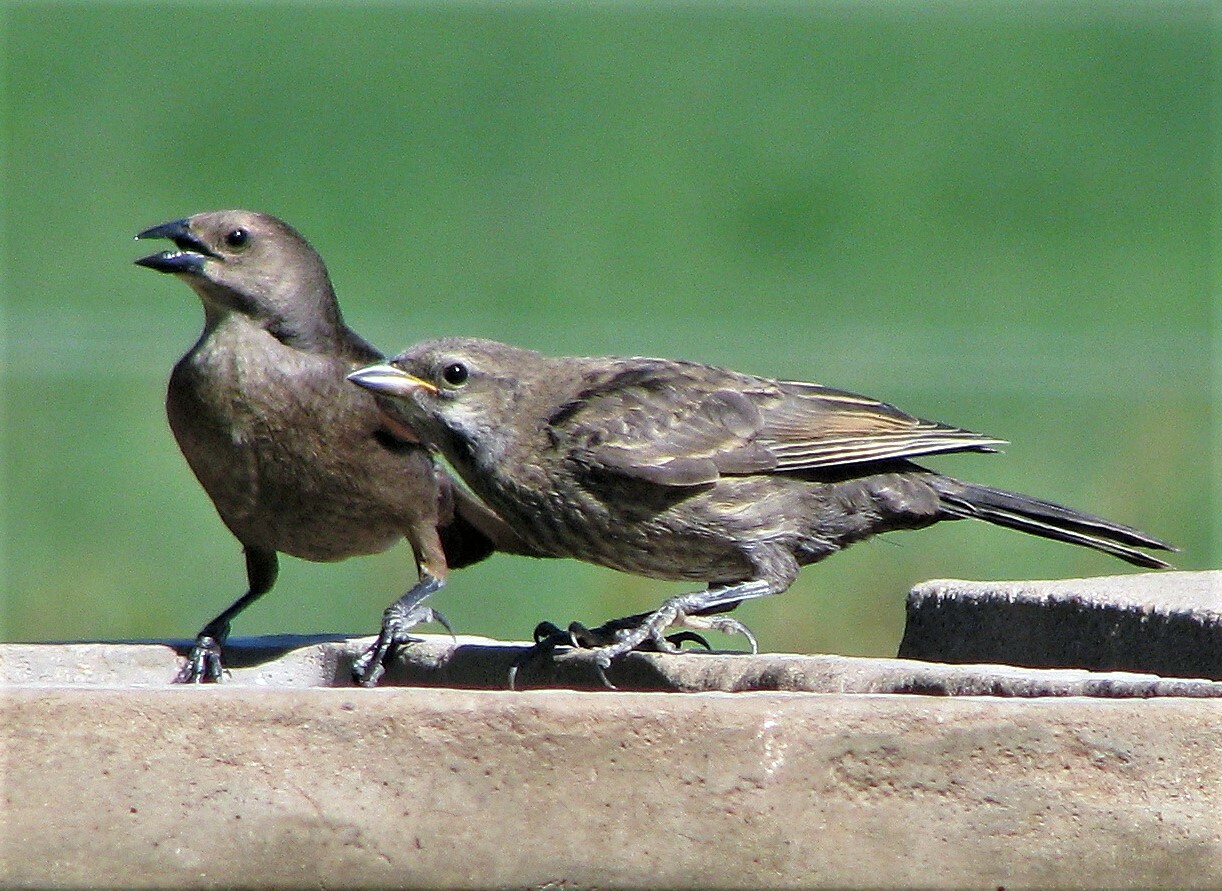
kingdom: Animalia
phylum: Chordata
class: Aves
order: Passeriformes
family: Icteridae
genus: Molothrus
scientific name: Molothrus bonariensis
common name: Shiny cowbird
